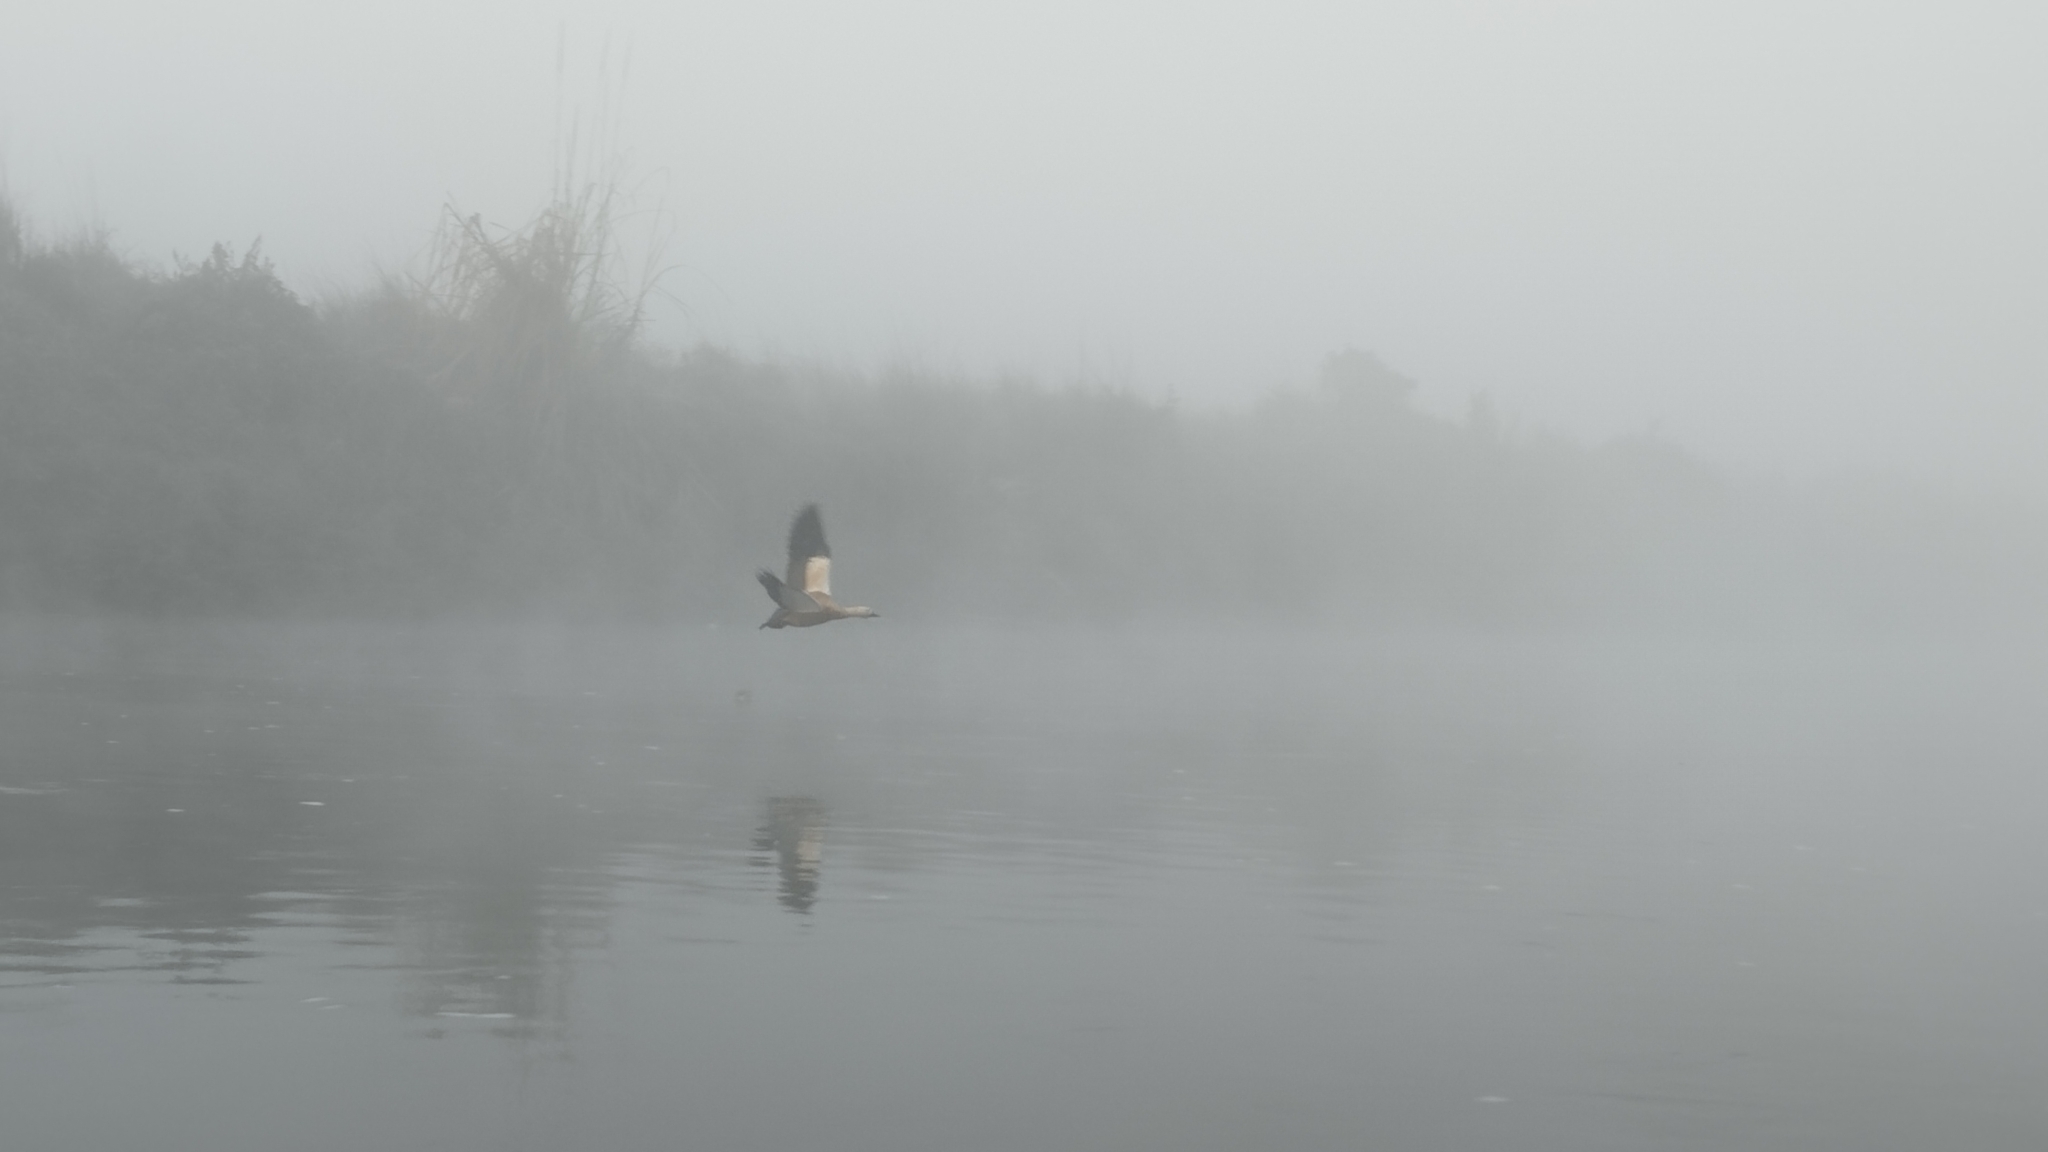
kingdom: Animalia
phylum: Chordata
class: Aves
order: Anseriformes
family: Anatidae
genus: Tadorna
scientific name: Tadorna ferruginea
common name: Ruddy shelduck
